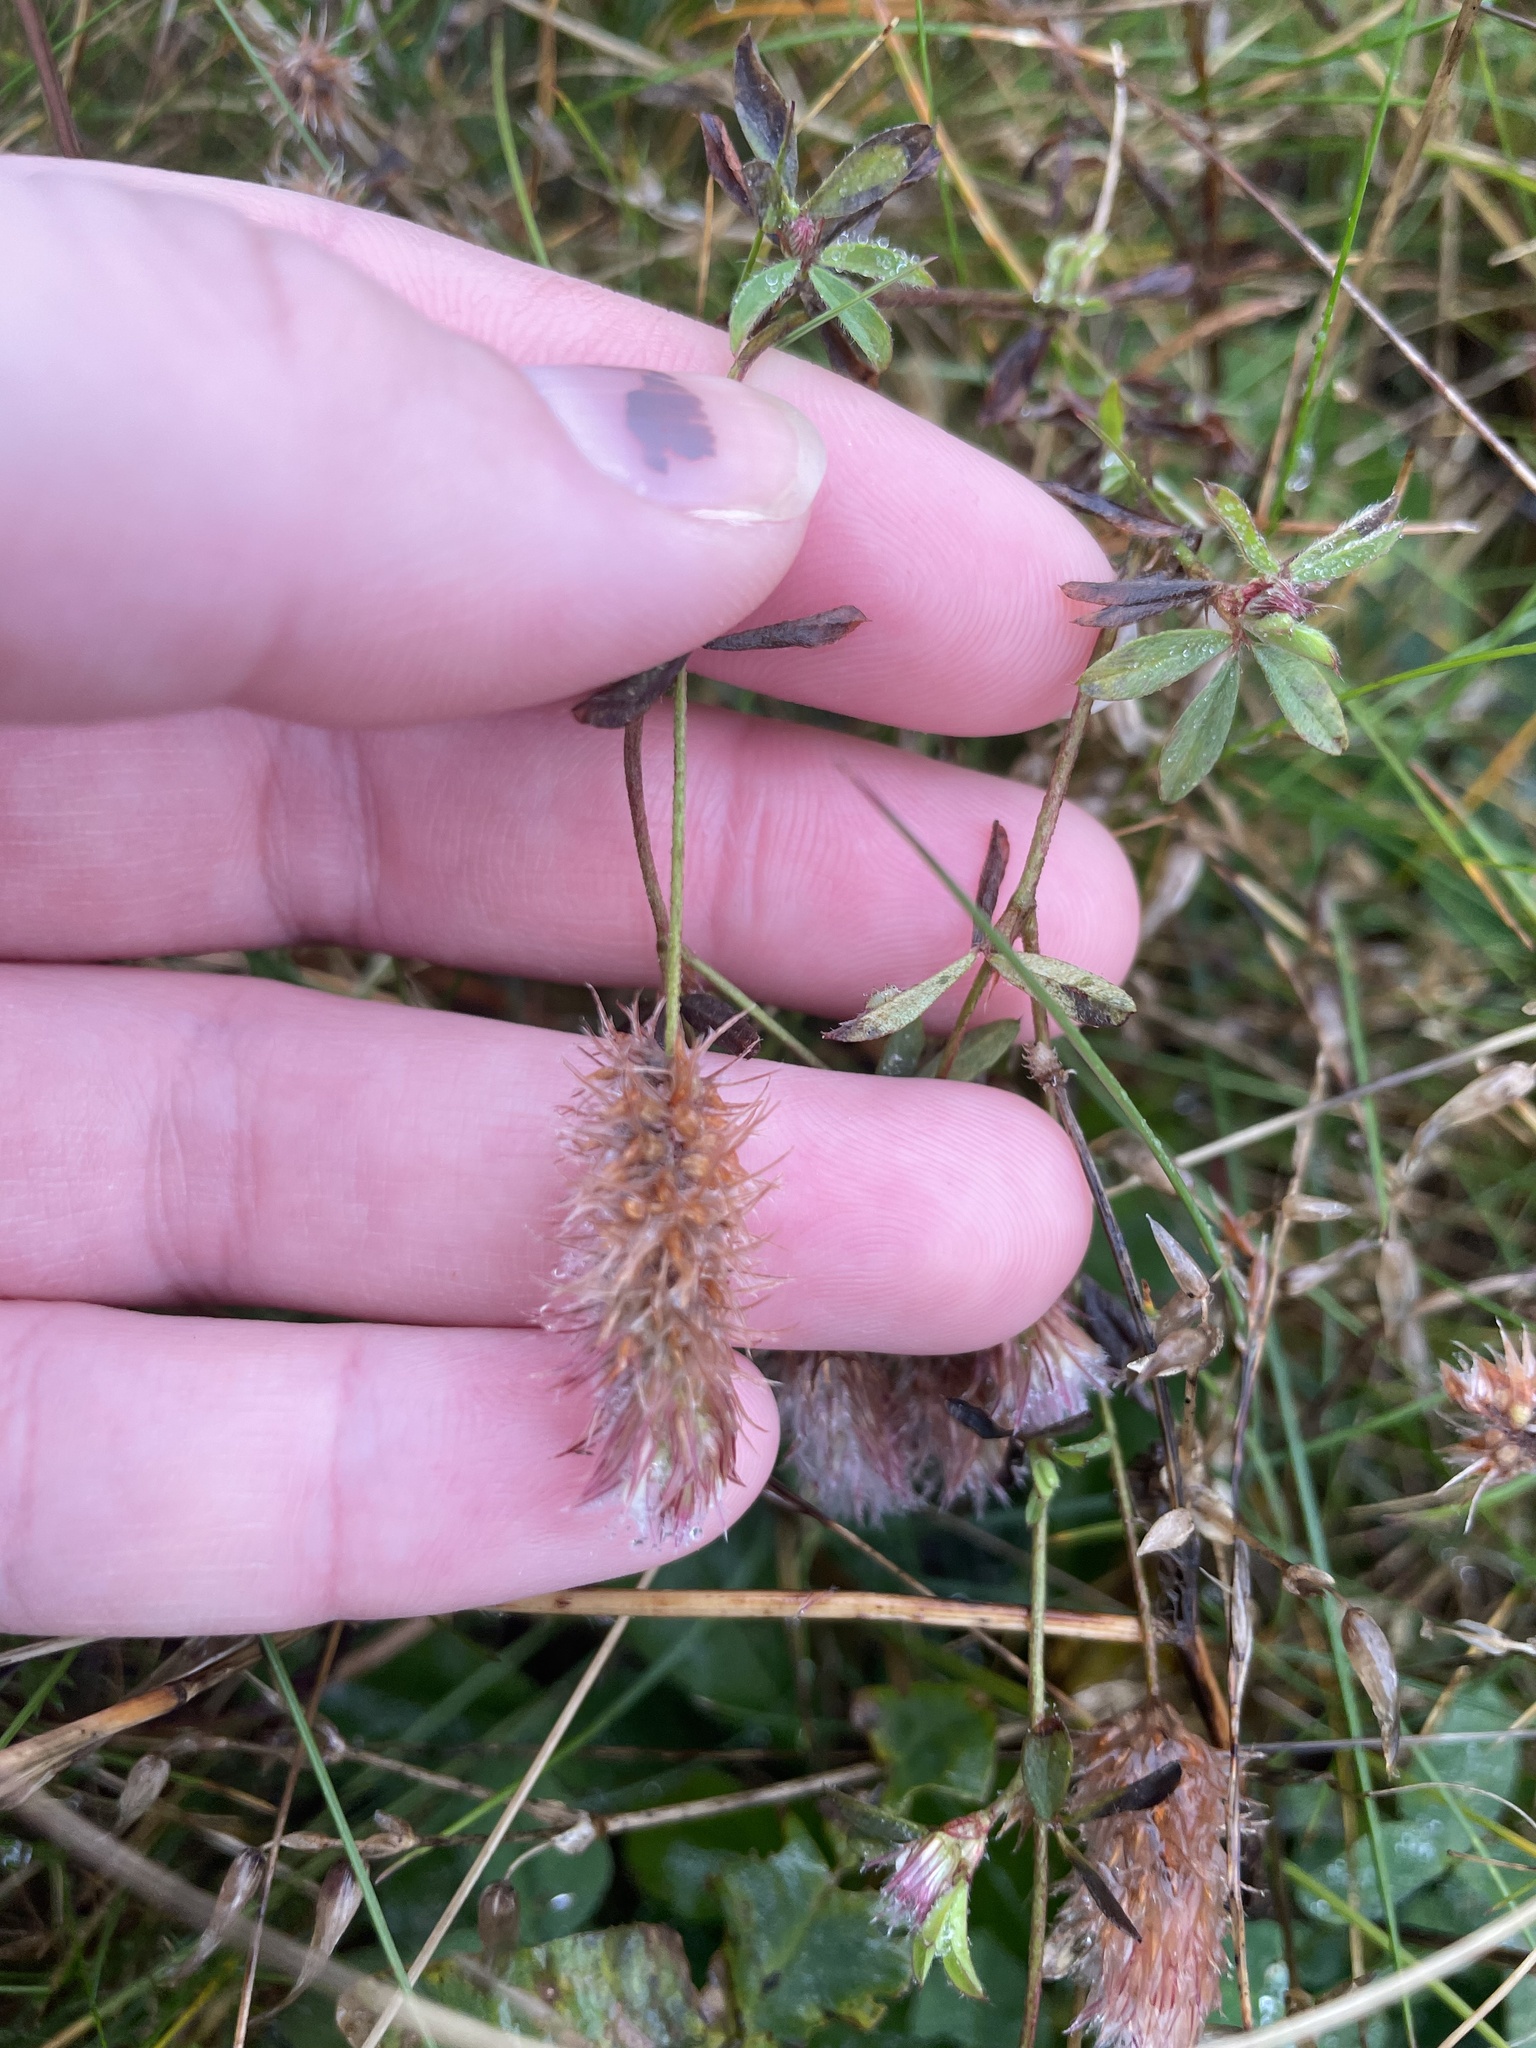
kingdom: Plantae
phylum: Tracheophyta
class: Magnoliopsida
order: Fabales
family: Fabaceae
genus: Trifolium
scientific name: Trifolium arvense
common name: Hare's-foot clover
